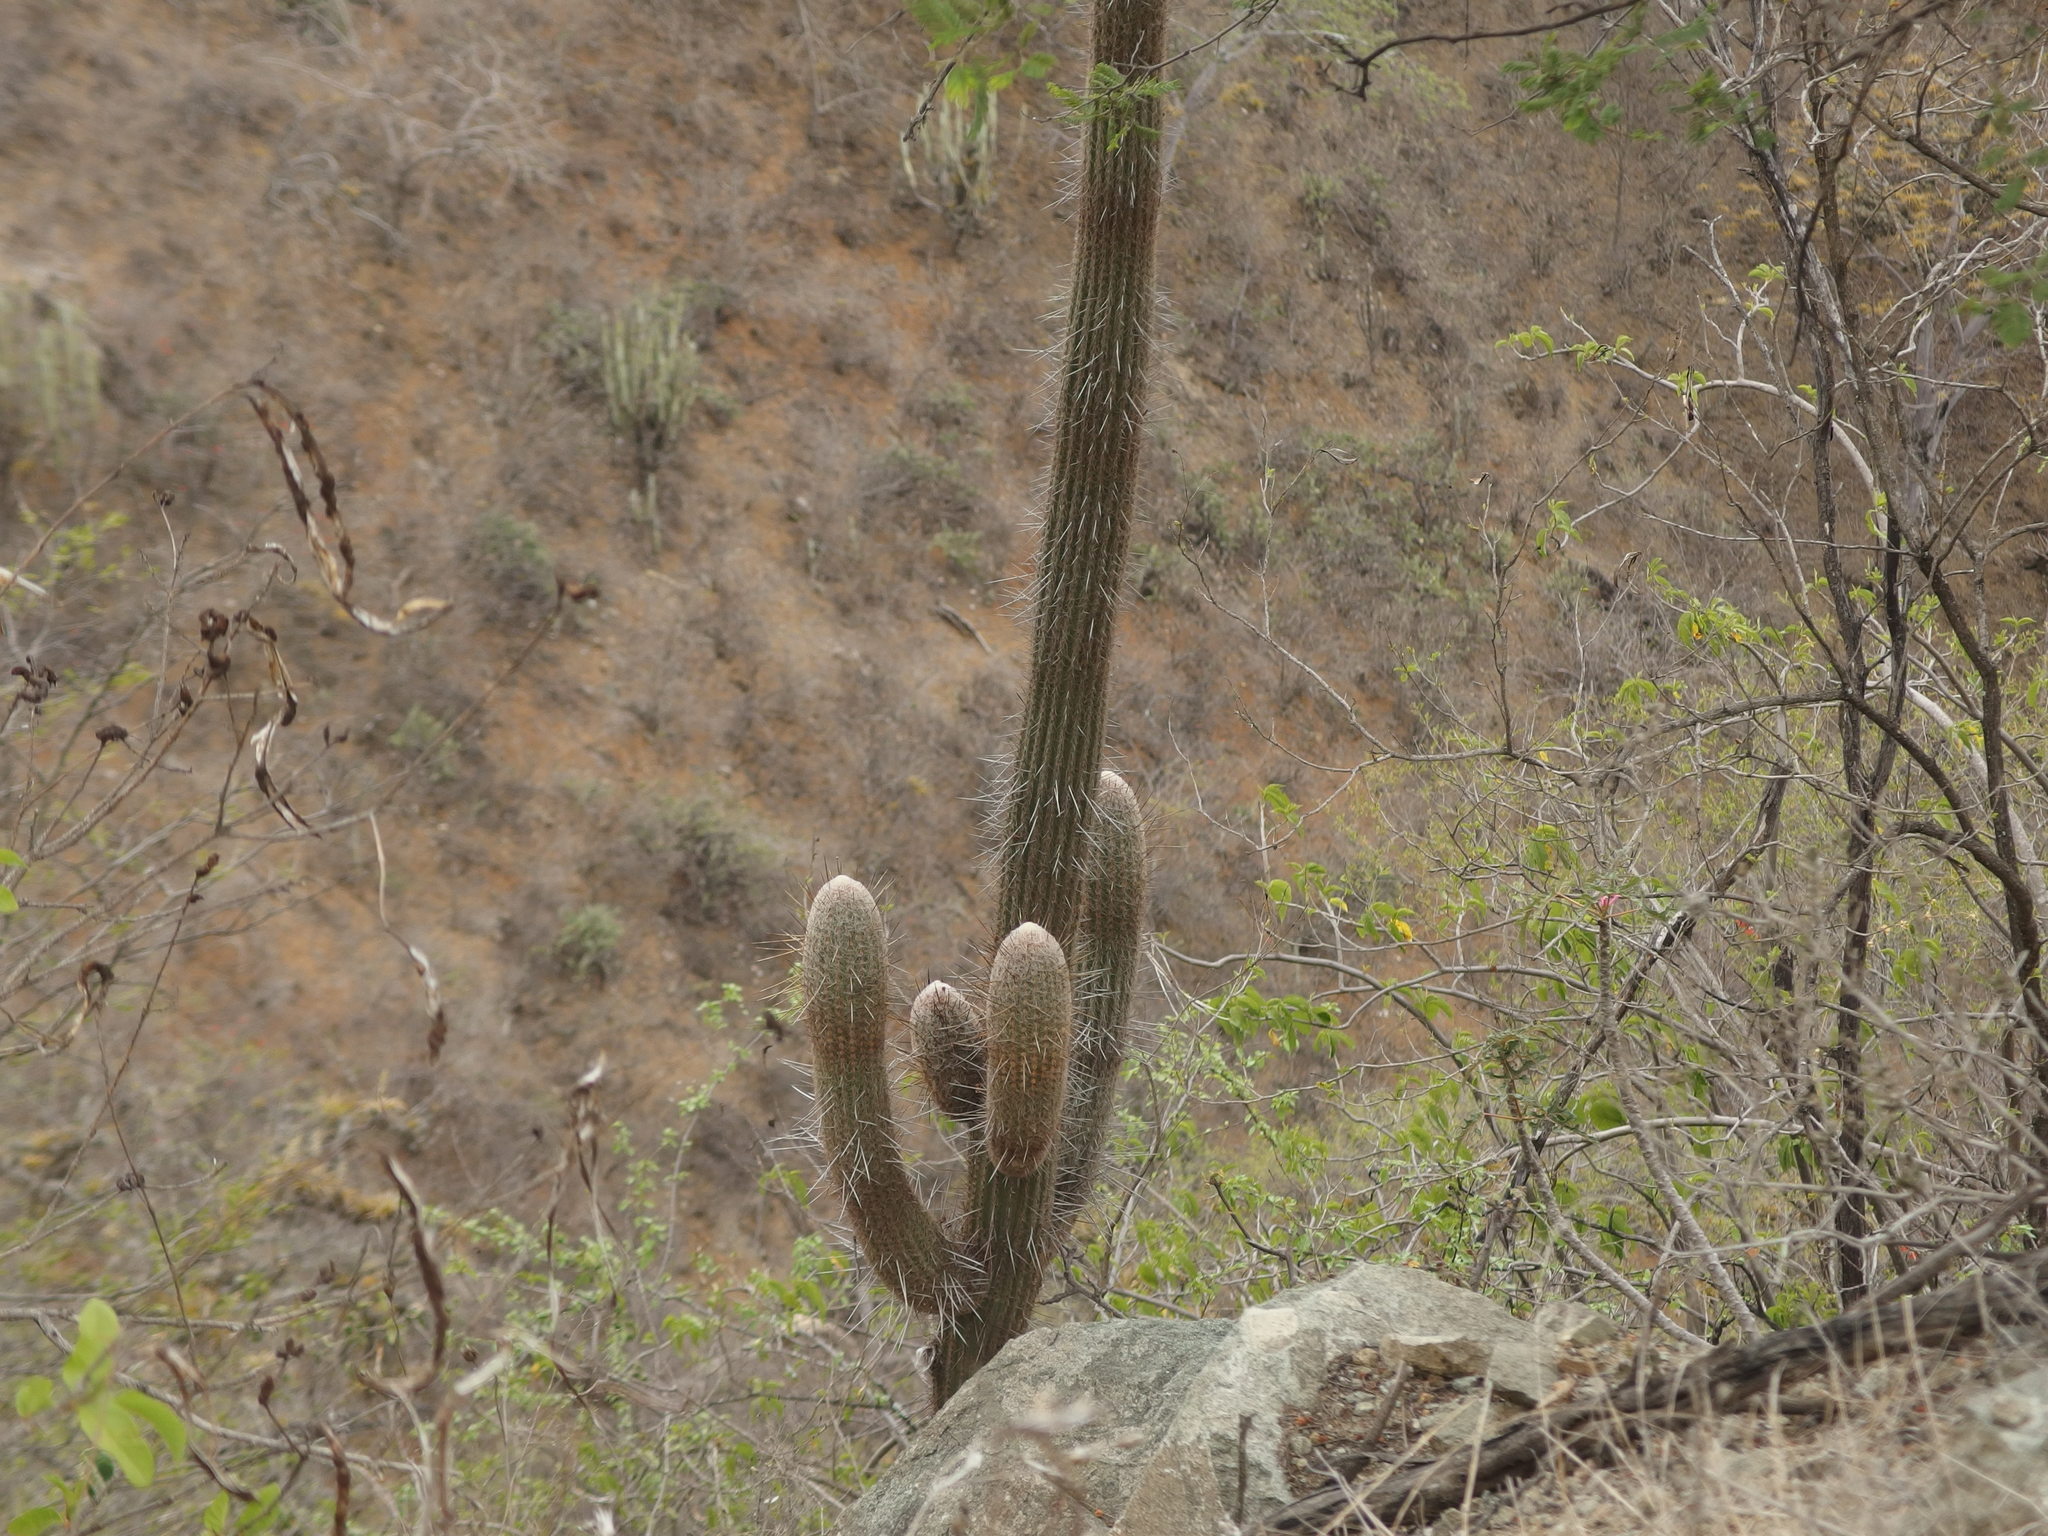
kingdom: Plantae
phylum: Tracheophyta
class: Magnoliopsida
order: Caryophyllales
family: Cactaceae
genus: Espostoa
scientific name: Espostoa lanata
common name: Snowball cactus
